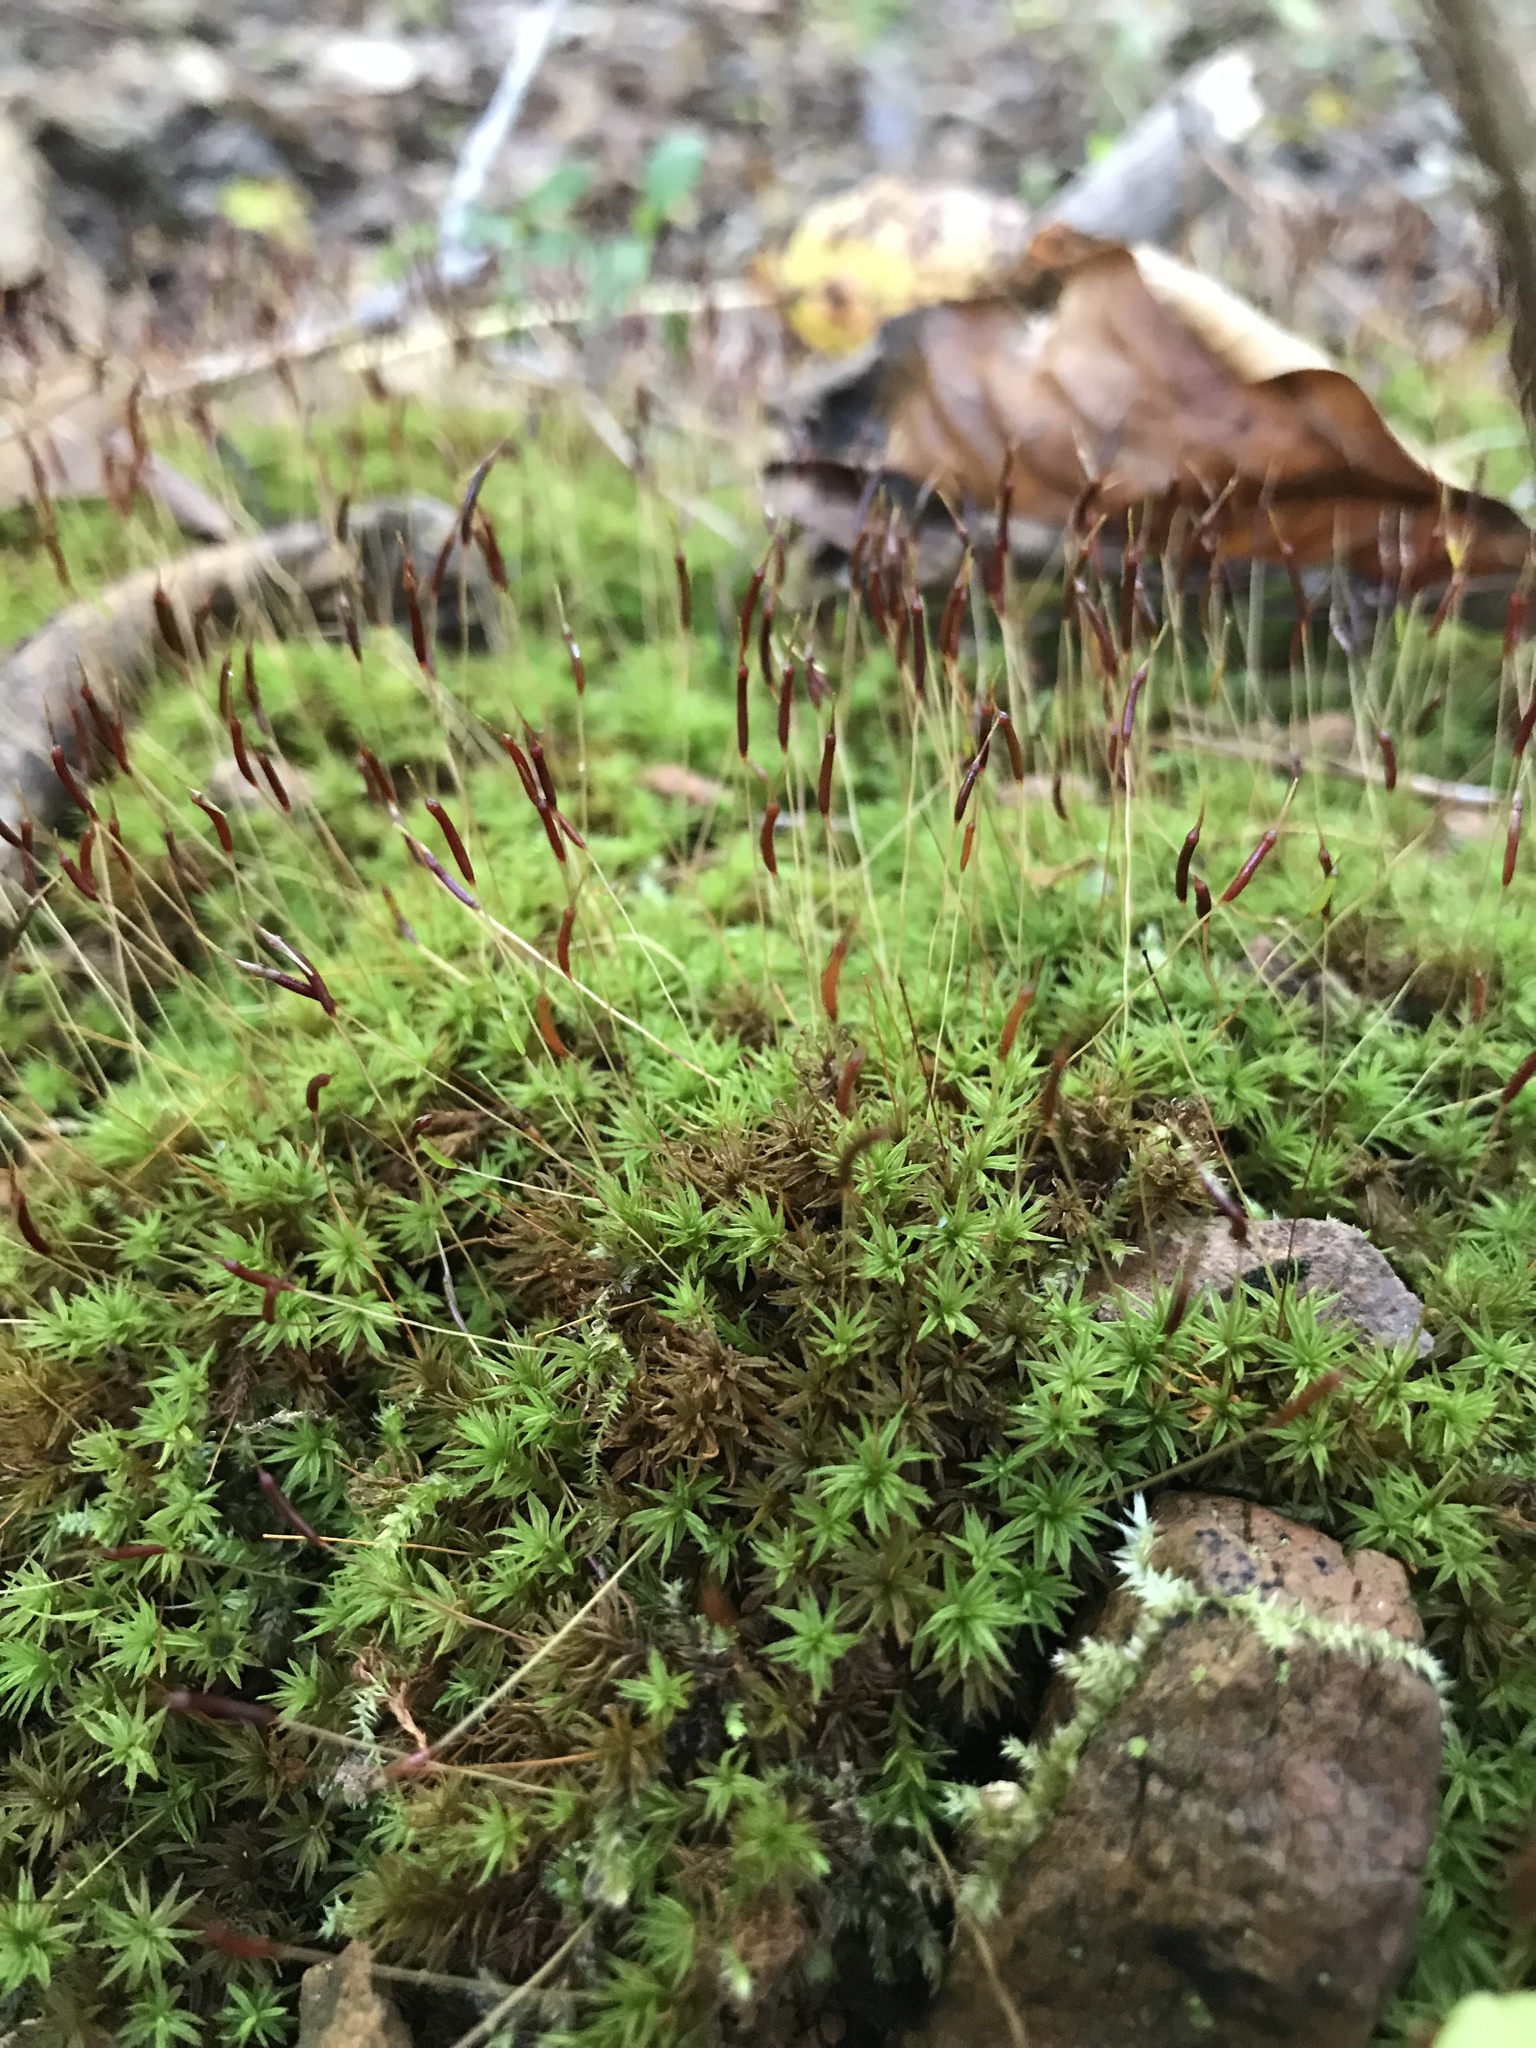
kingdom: Plantae
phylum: Bryophyta
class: Polytrichopsida
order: Polytrichales
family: Polytrichaceae
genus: Atrichum
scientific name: Atrichum angustatum
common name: Lesser smoothcap
